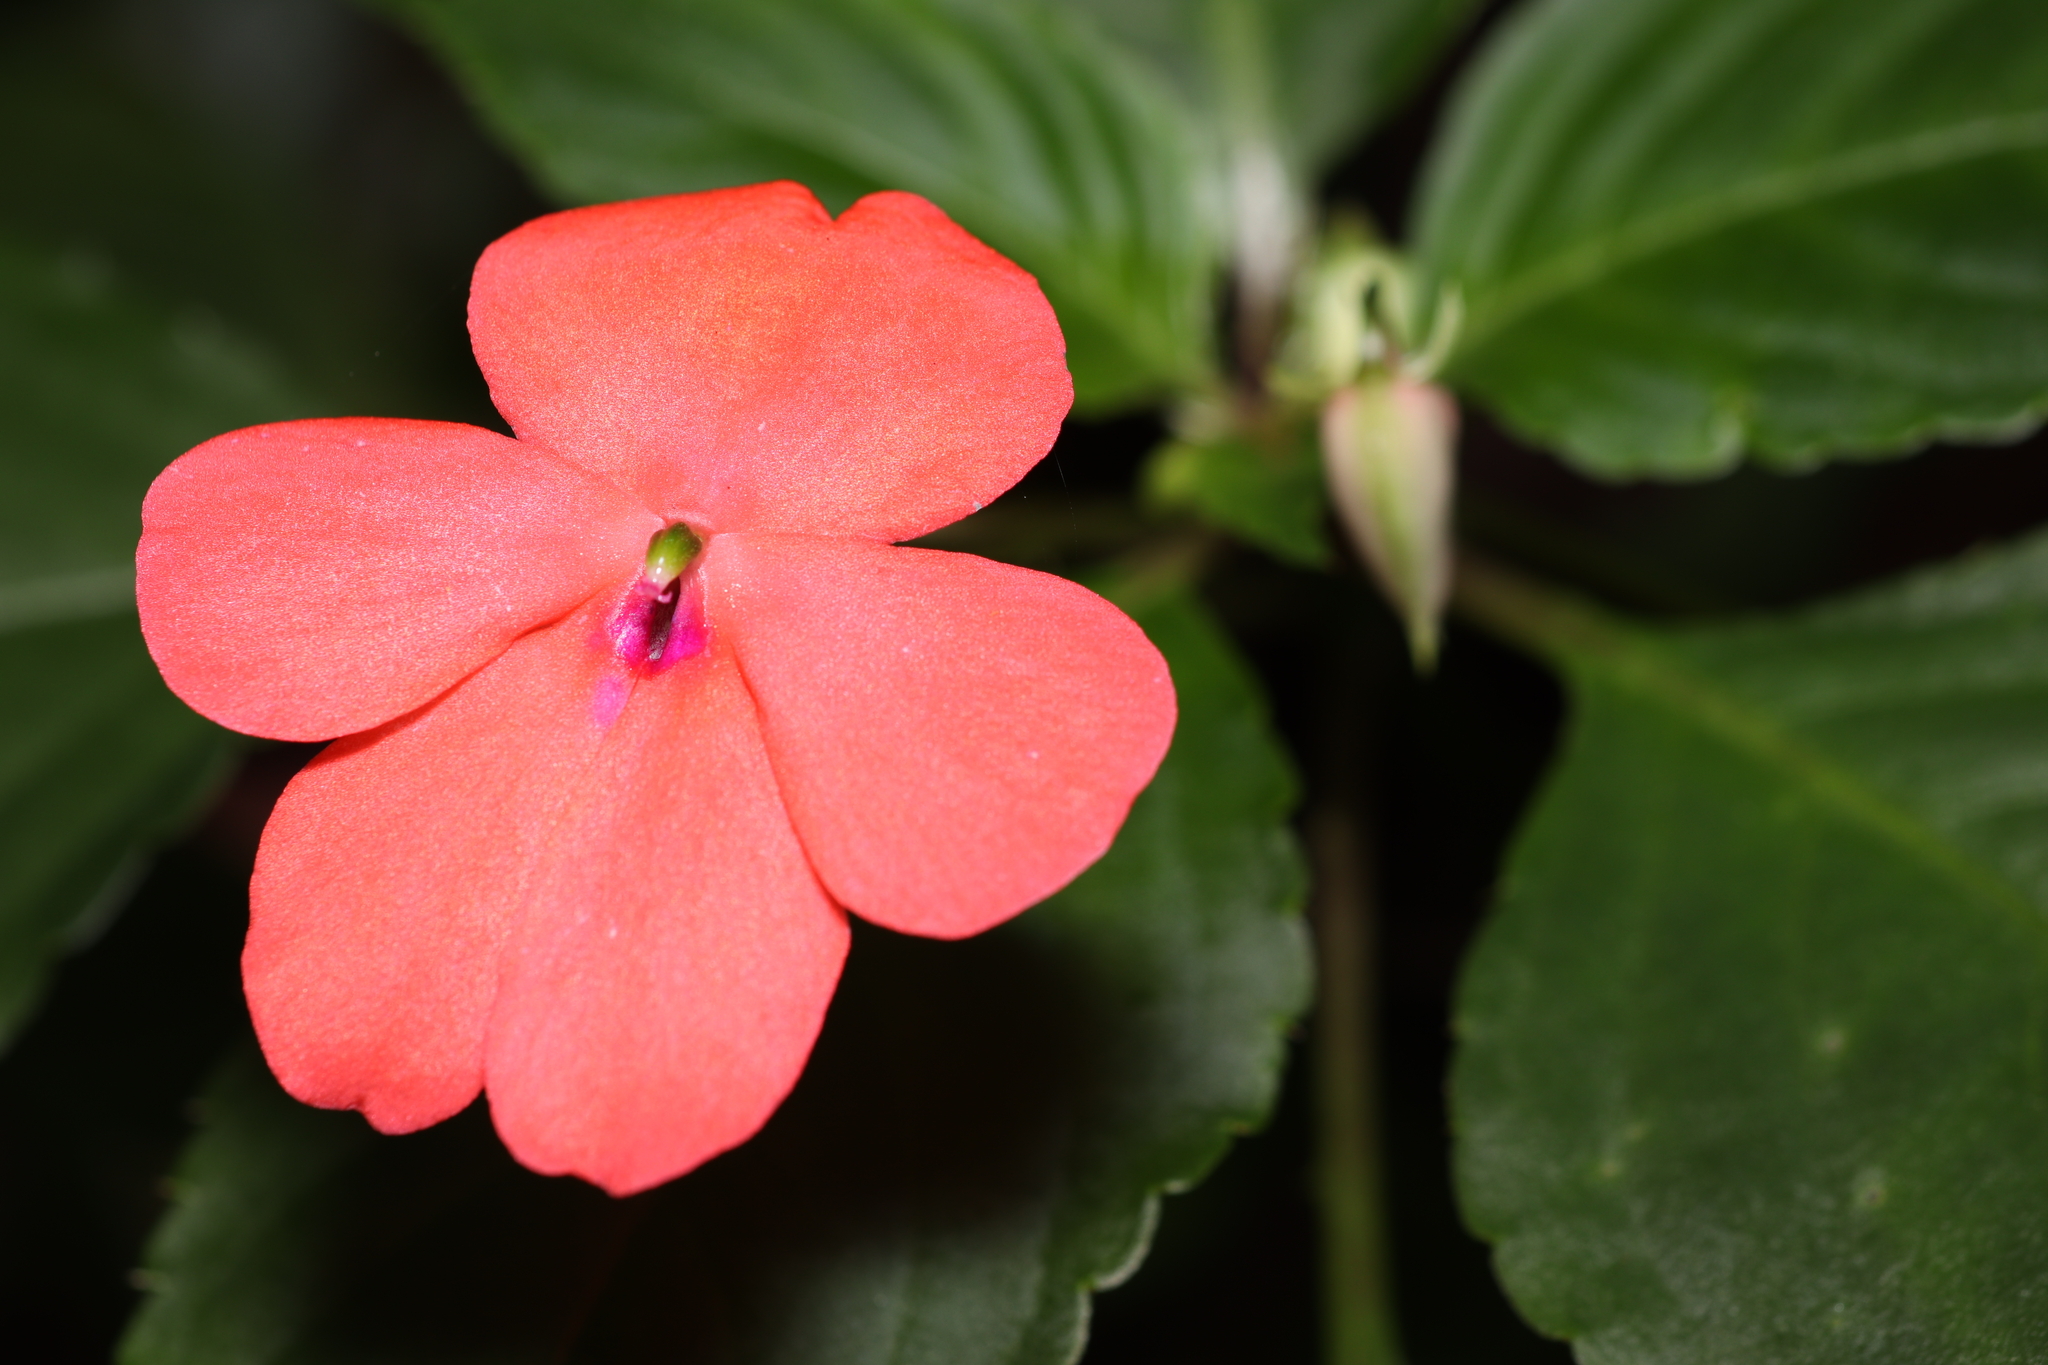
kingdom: Plantae
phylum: Tracheophyta
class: Magnoliopsida
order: Ericales
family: Balsaminaceae
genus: Impatiens
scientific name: Impatiens walleriana
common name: Buzzy lizzy
